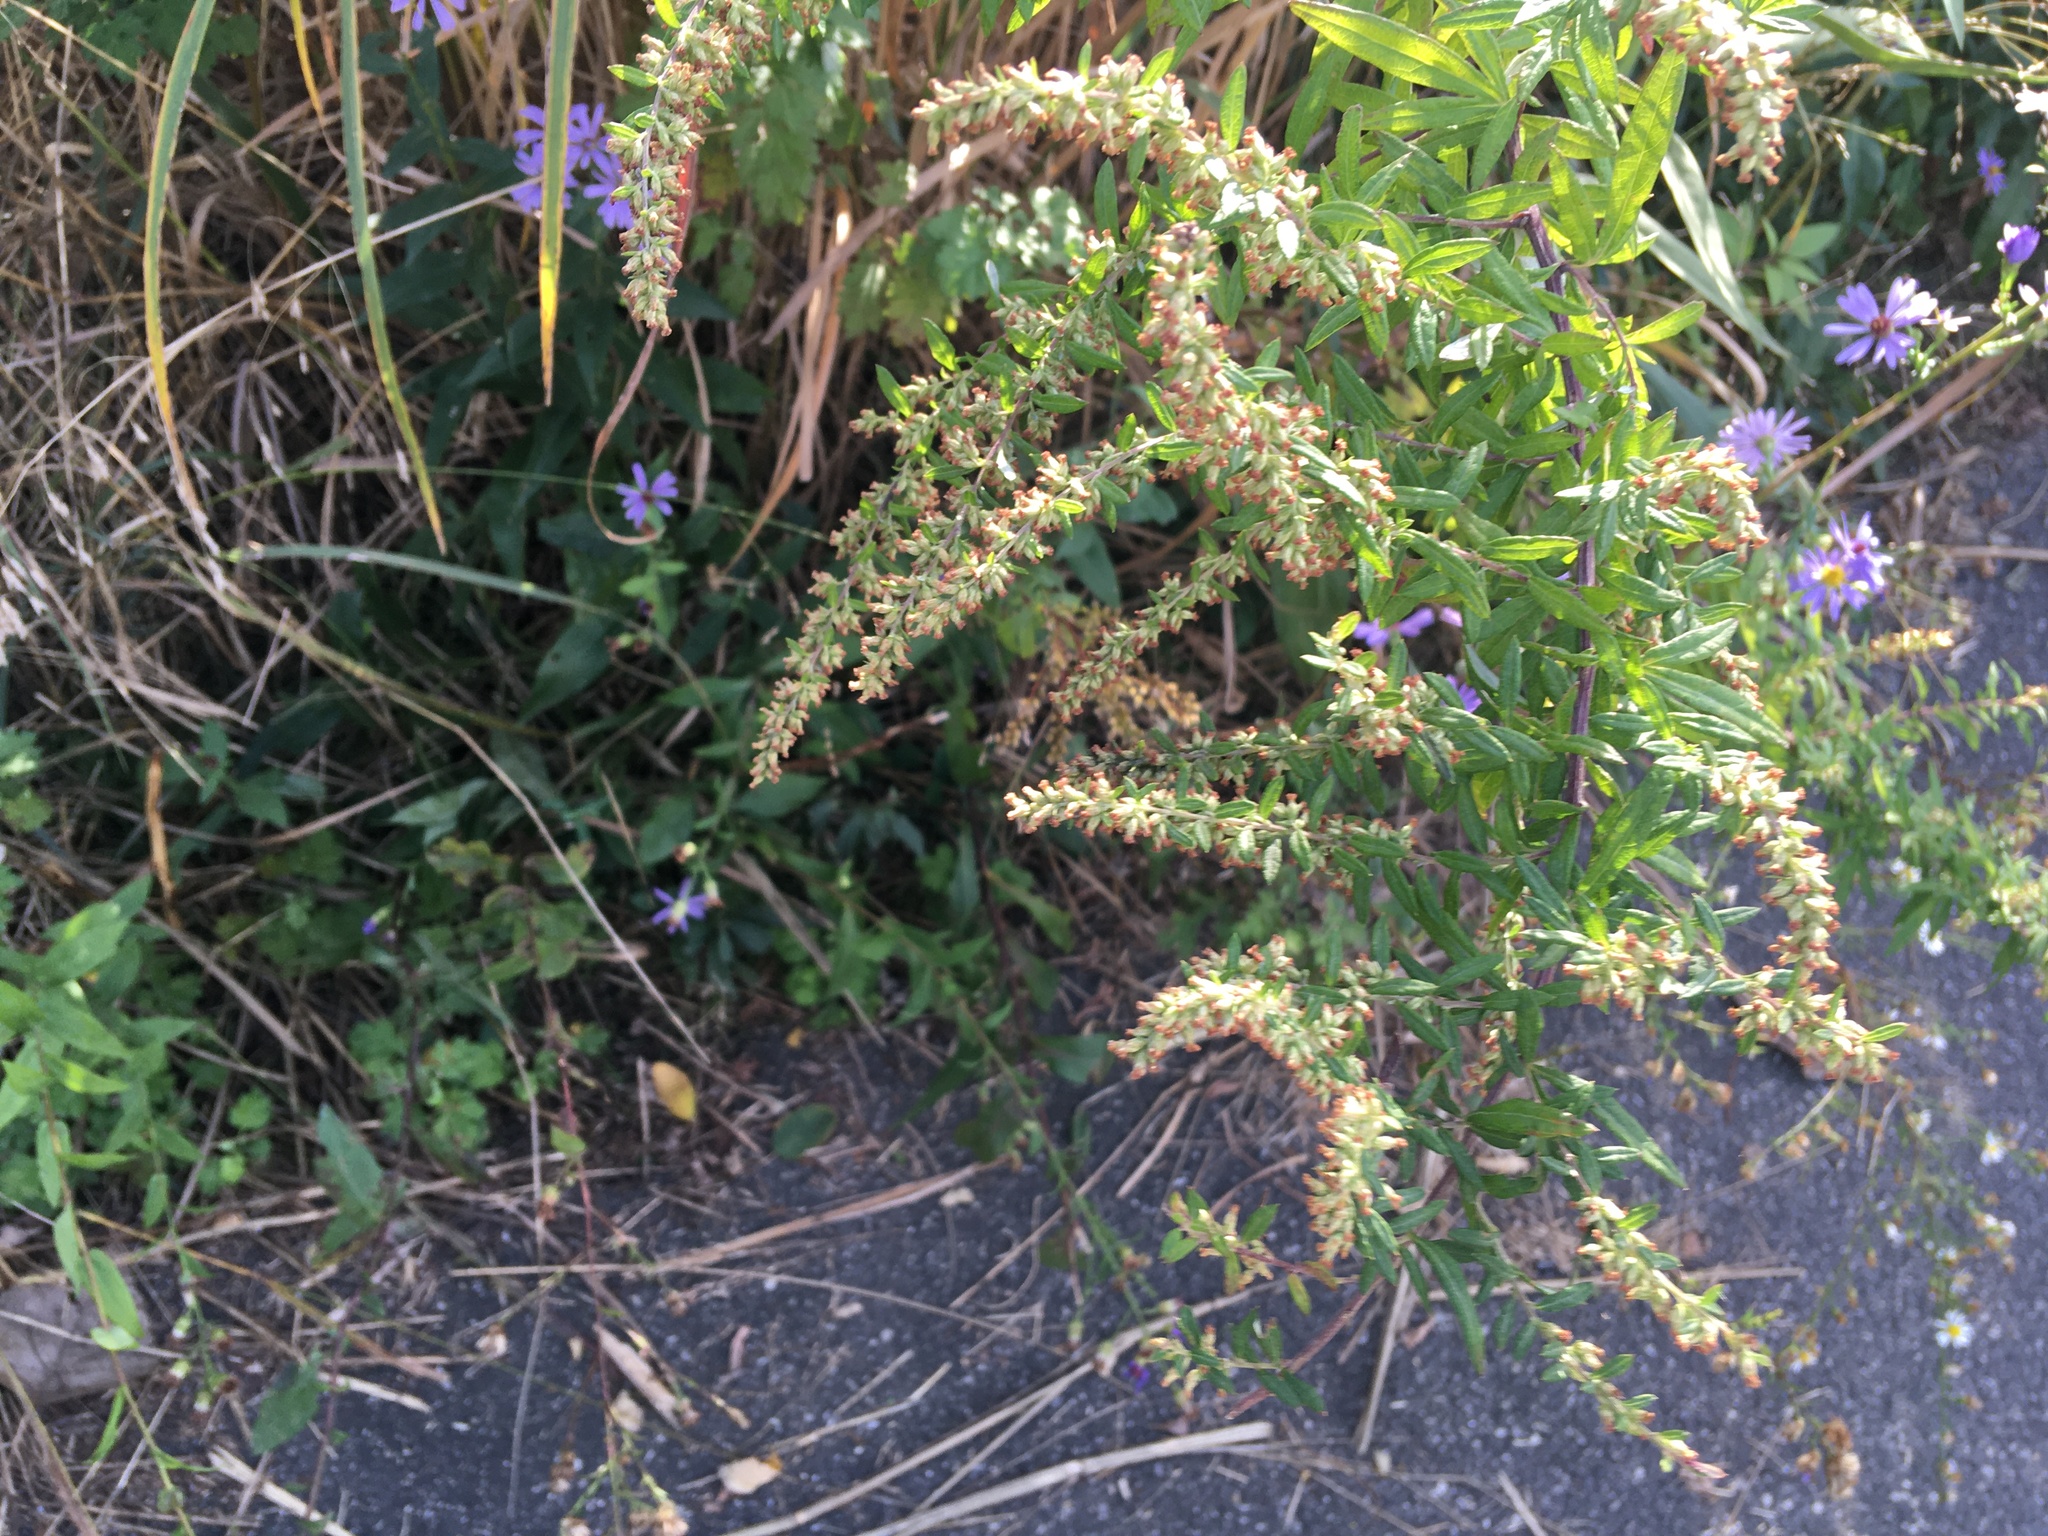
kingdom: Plantae
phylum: Tracheophyta
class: Magnoliopsida
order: Asterales
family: Asteraceae
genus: Artemisia
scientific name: Artemisia vulgaris
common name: Mugwort
